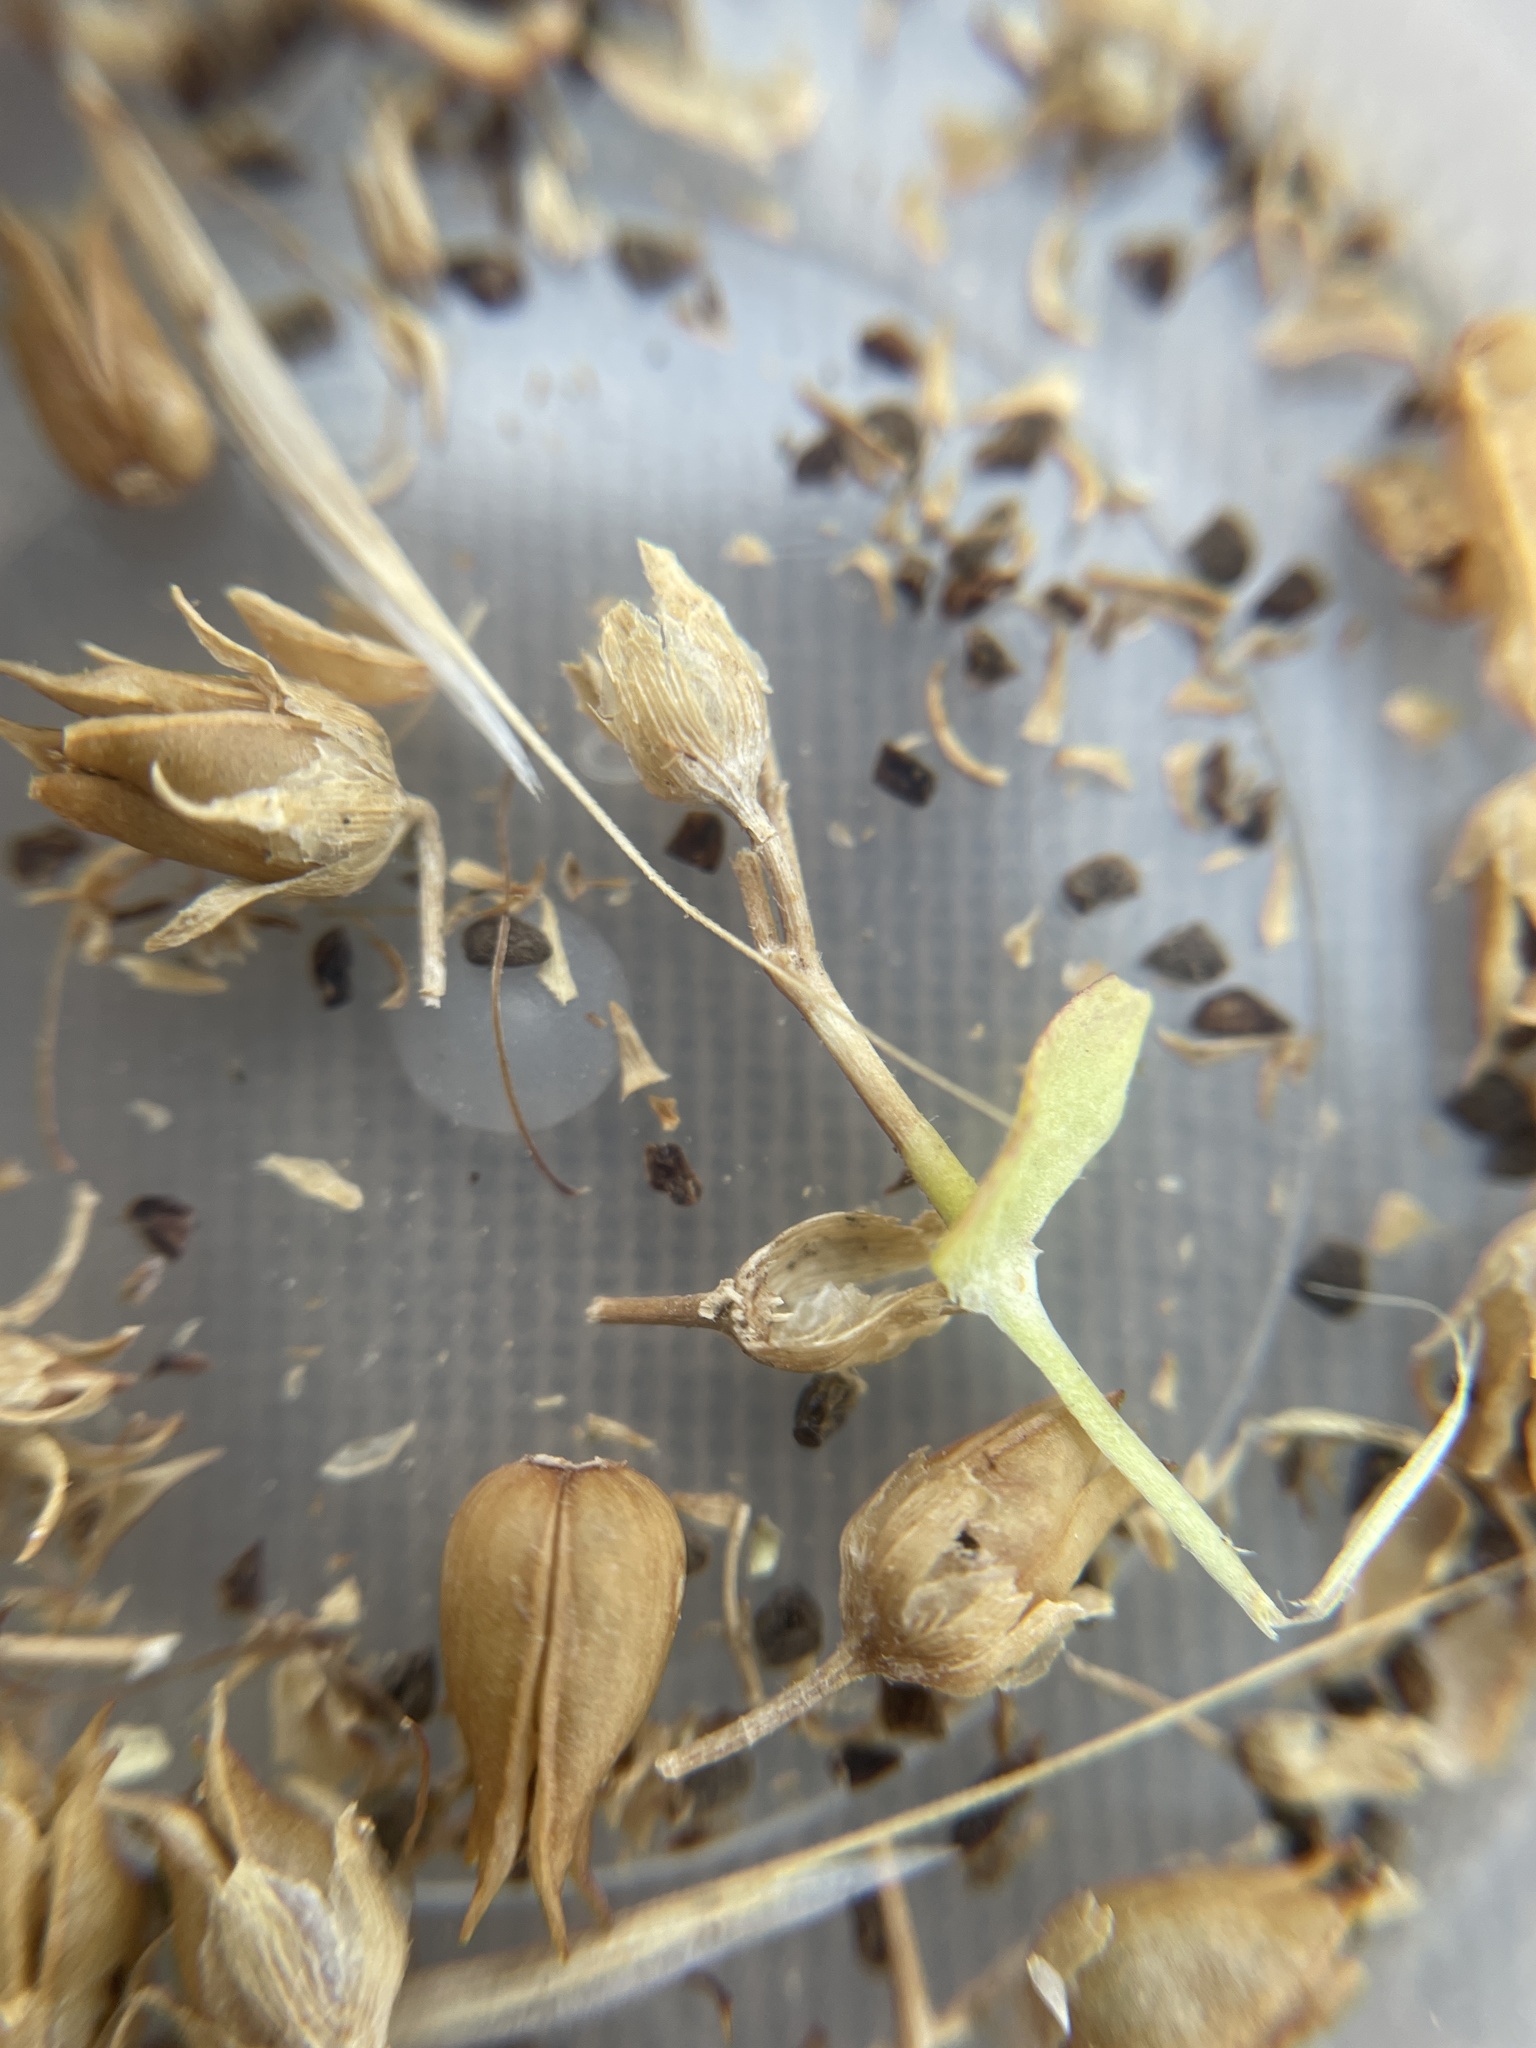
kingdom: Plantae
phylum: Tracheophyta
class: Magnoliopsida
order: Lamiales
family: Plantaginaceae
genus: Penstemon
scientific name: Penstemon virens
